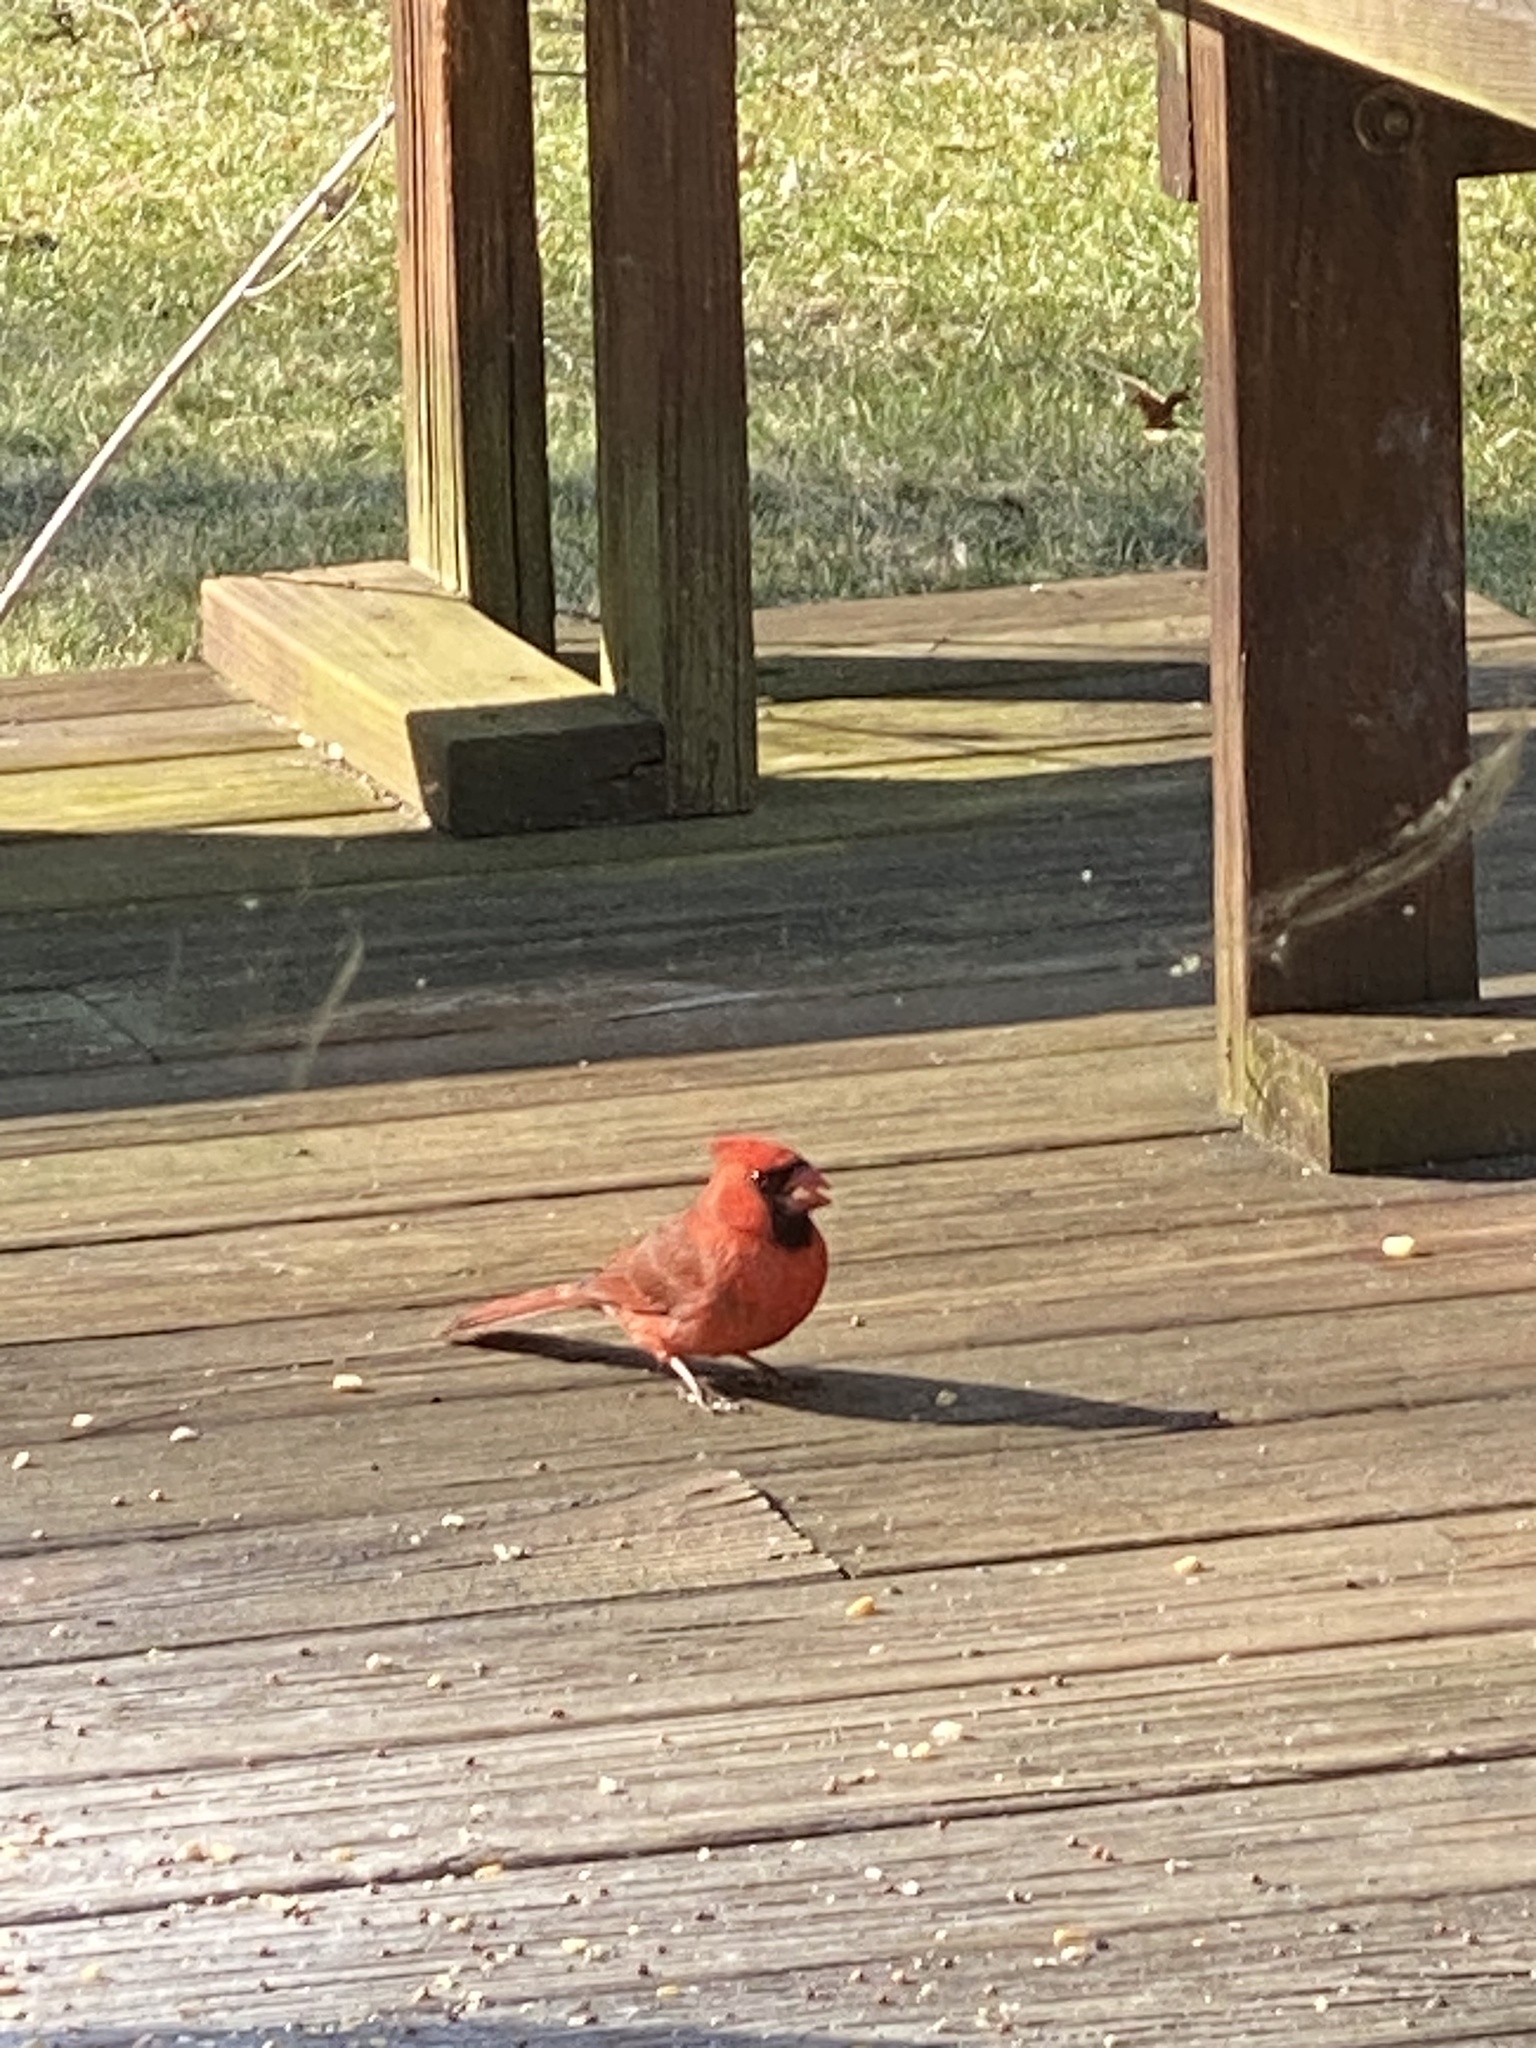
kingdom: Animalia
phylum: Chordata
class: Aves
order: Passeriformes
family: Cardinalidae
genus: Cardinalis
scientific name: Cardinalis cardinalis
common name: Northern cardinal
